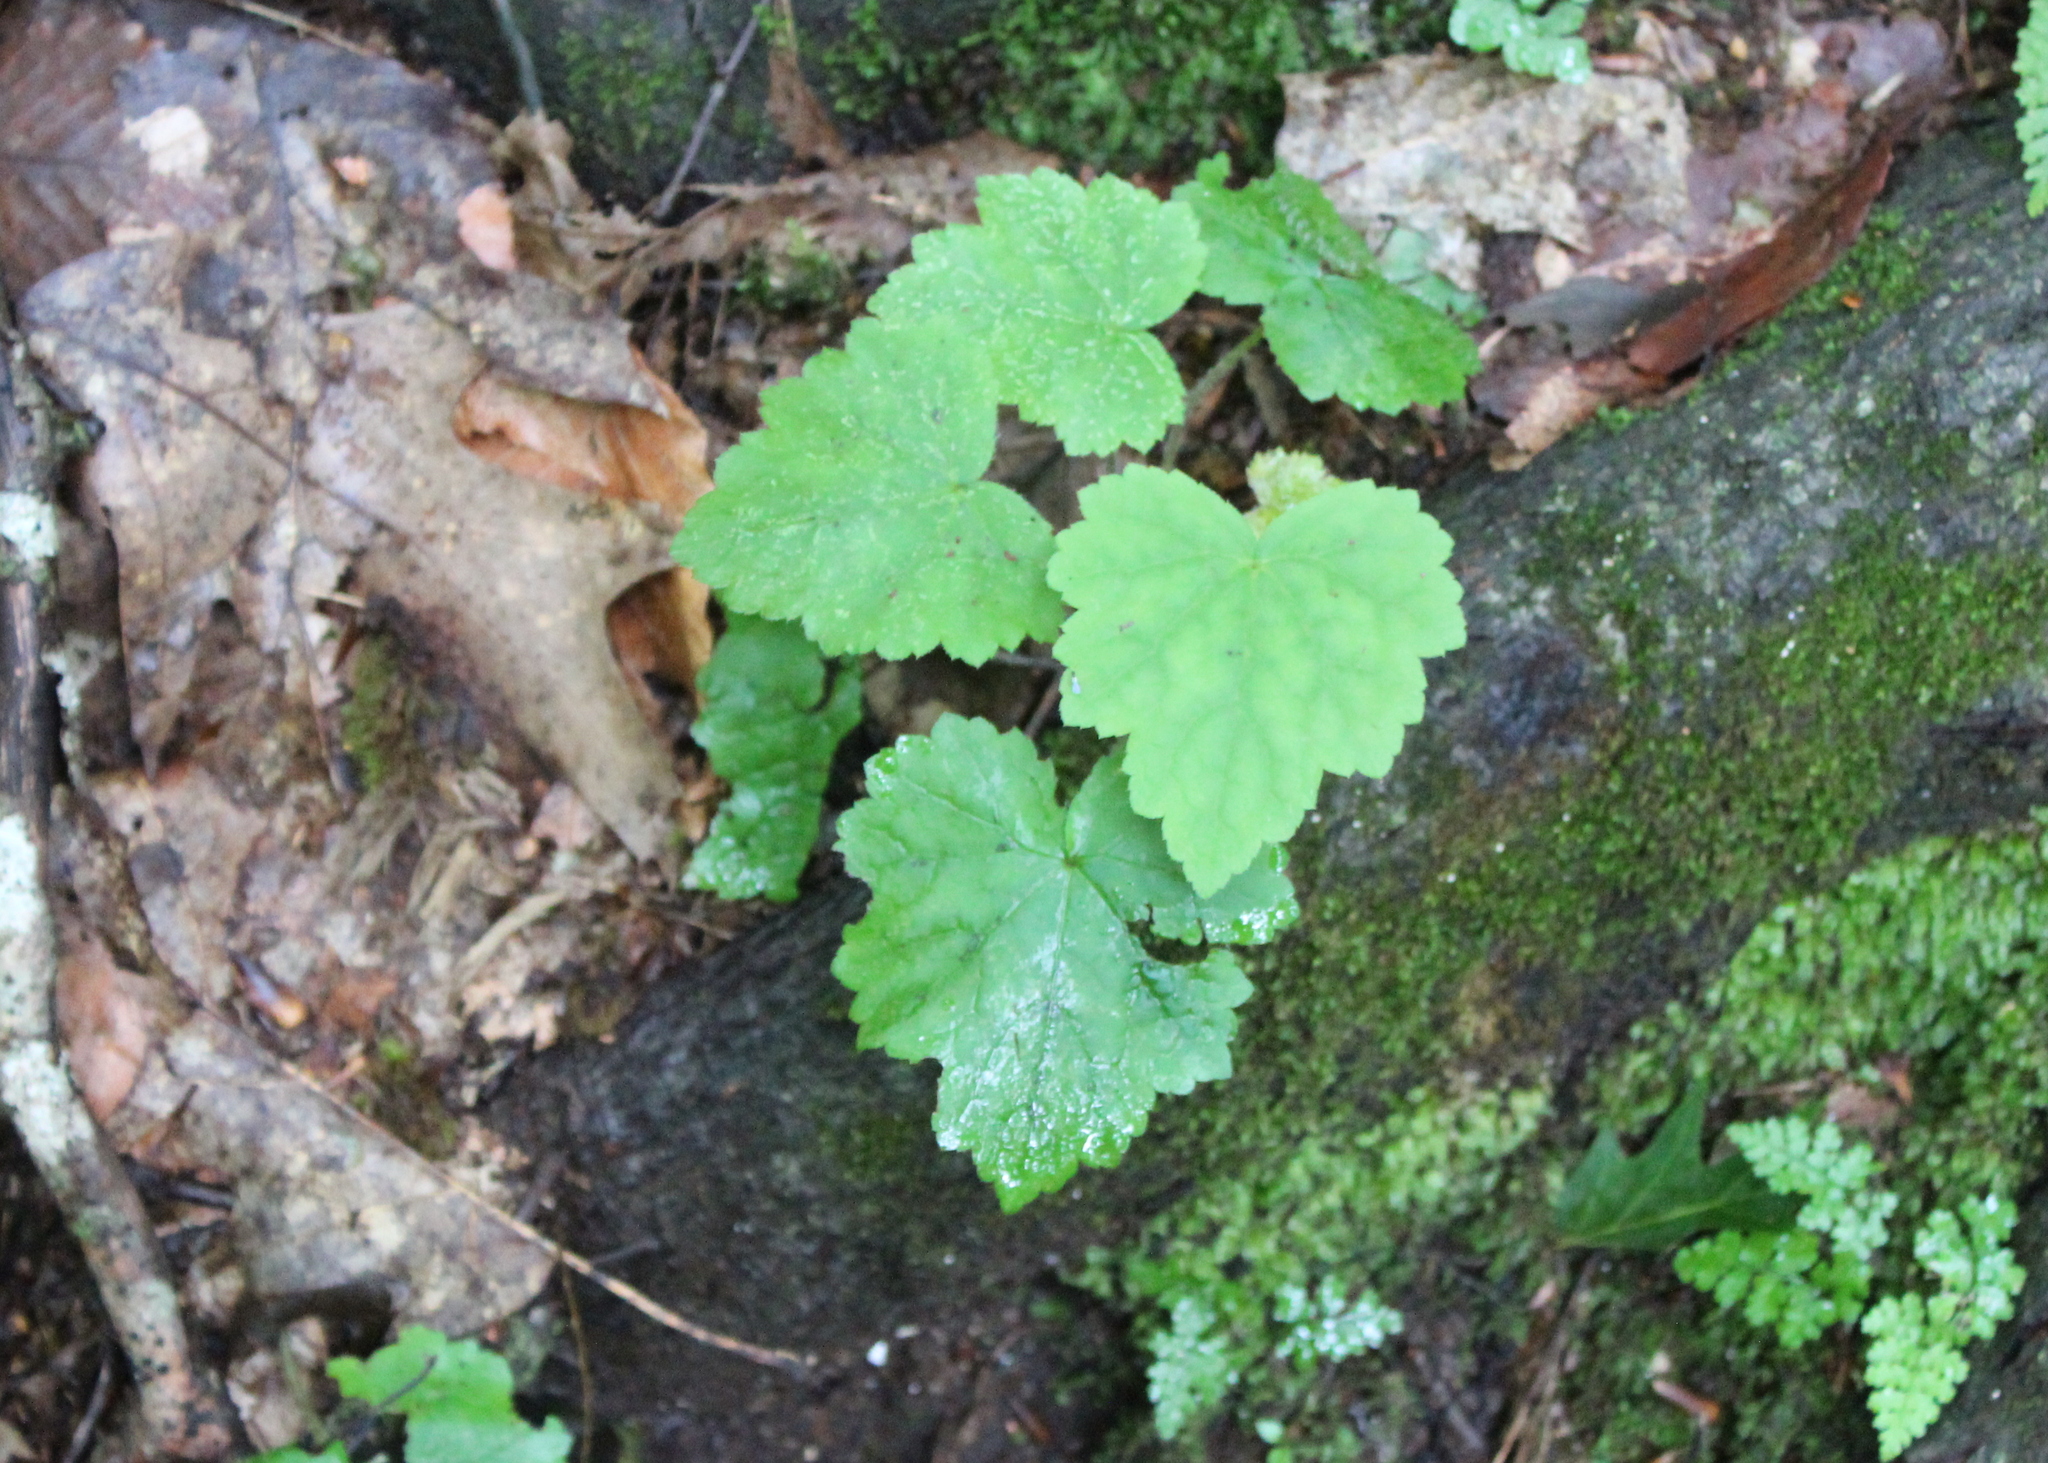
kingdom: Plantae
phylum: Tracheophyta
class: Magnoliopsida
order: Saxifragales
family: Saxifragaceae
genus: Tiarella
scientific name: Tiarella stolonifera
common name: Stoloniferous foamflower
